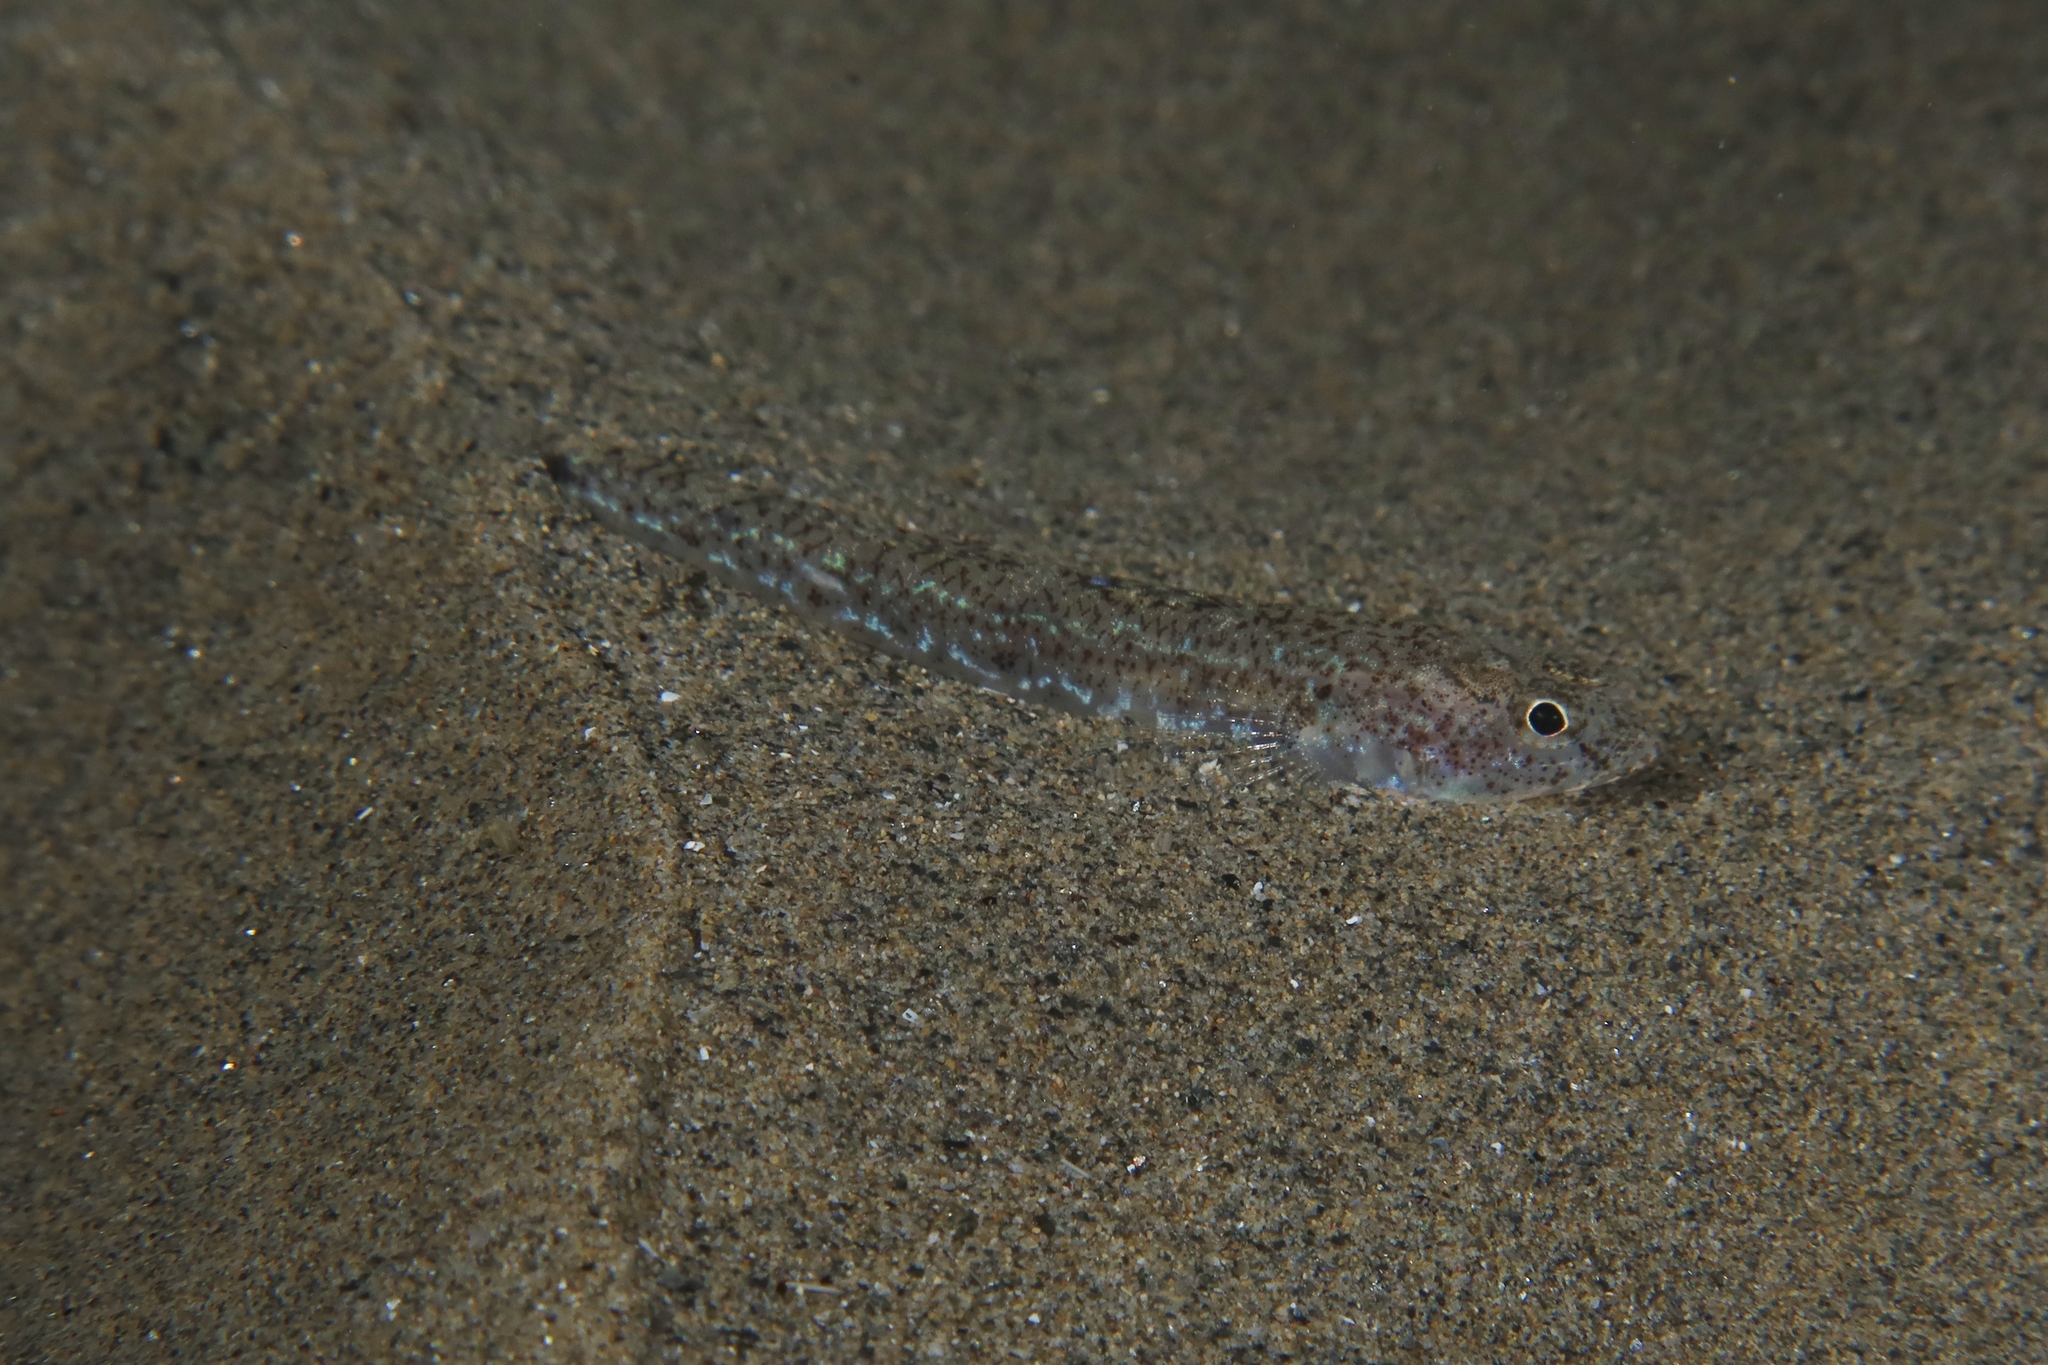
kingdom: Animalia
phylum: Chordata
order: Perciformes
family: Gobiidae
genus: Pomatoschistus
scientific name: Pomatoschistus marmoratus
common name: Marbled goby
